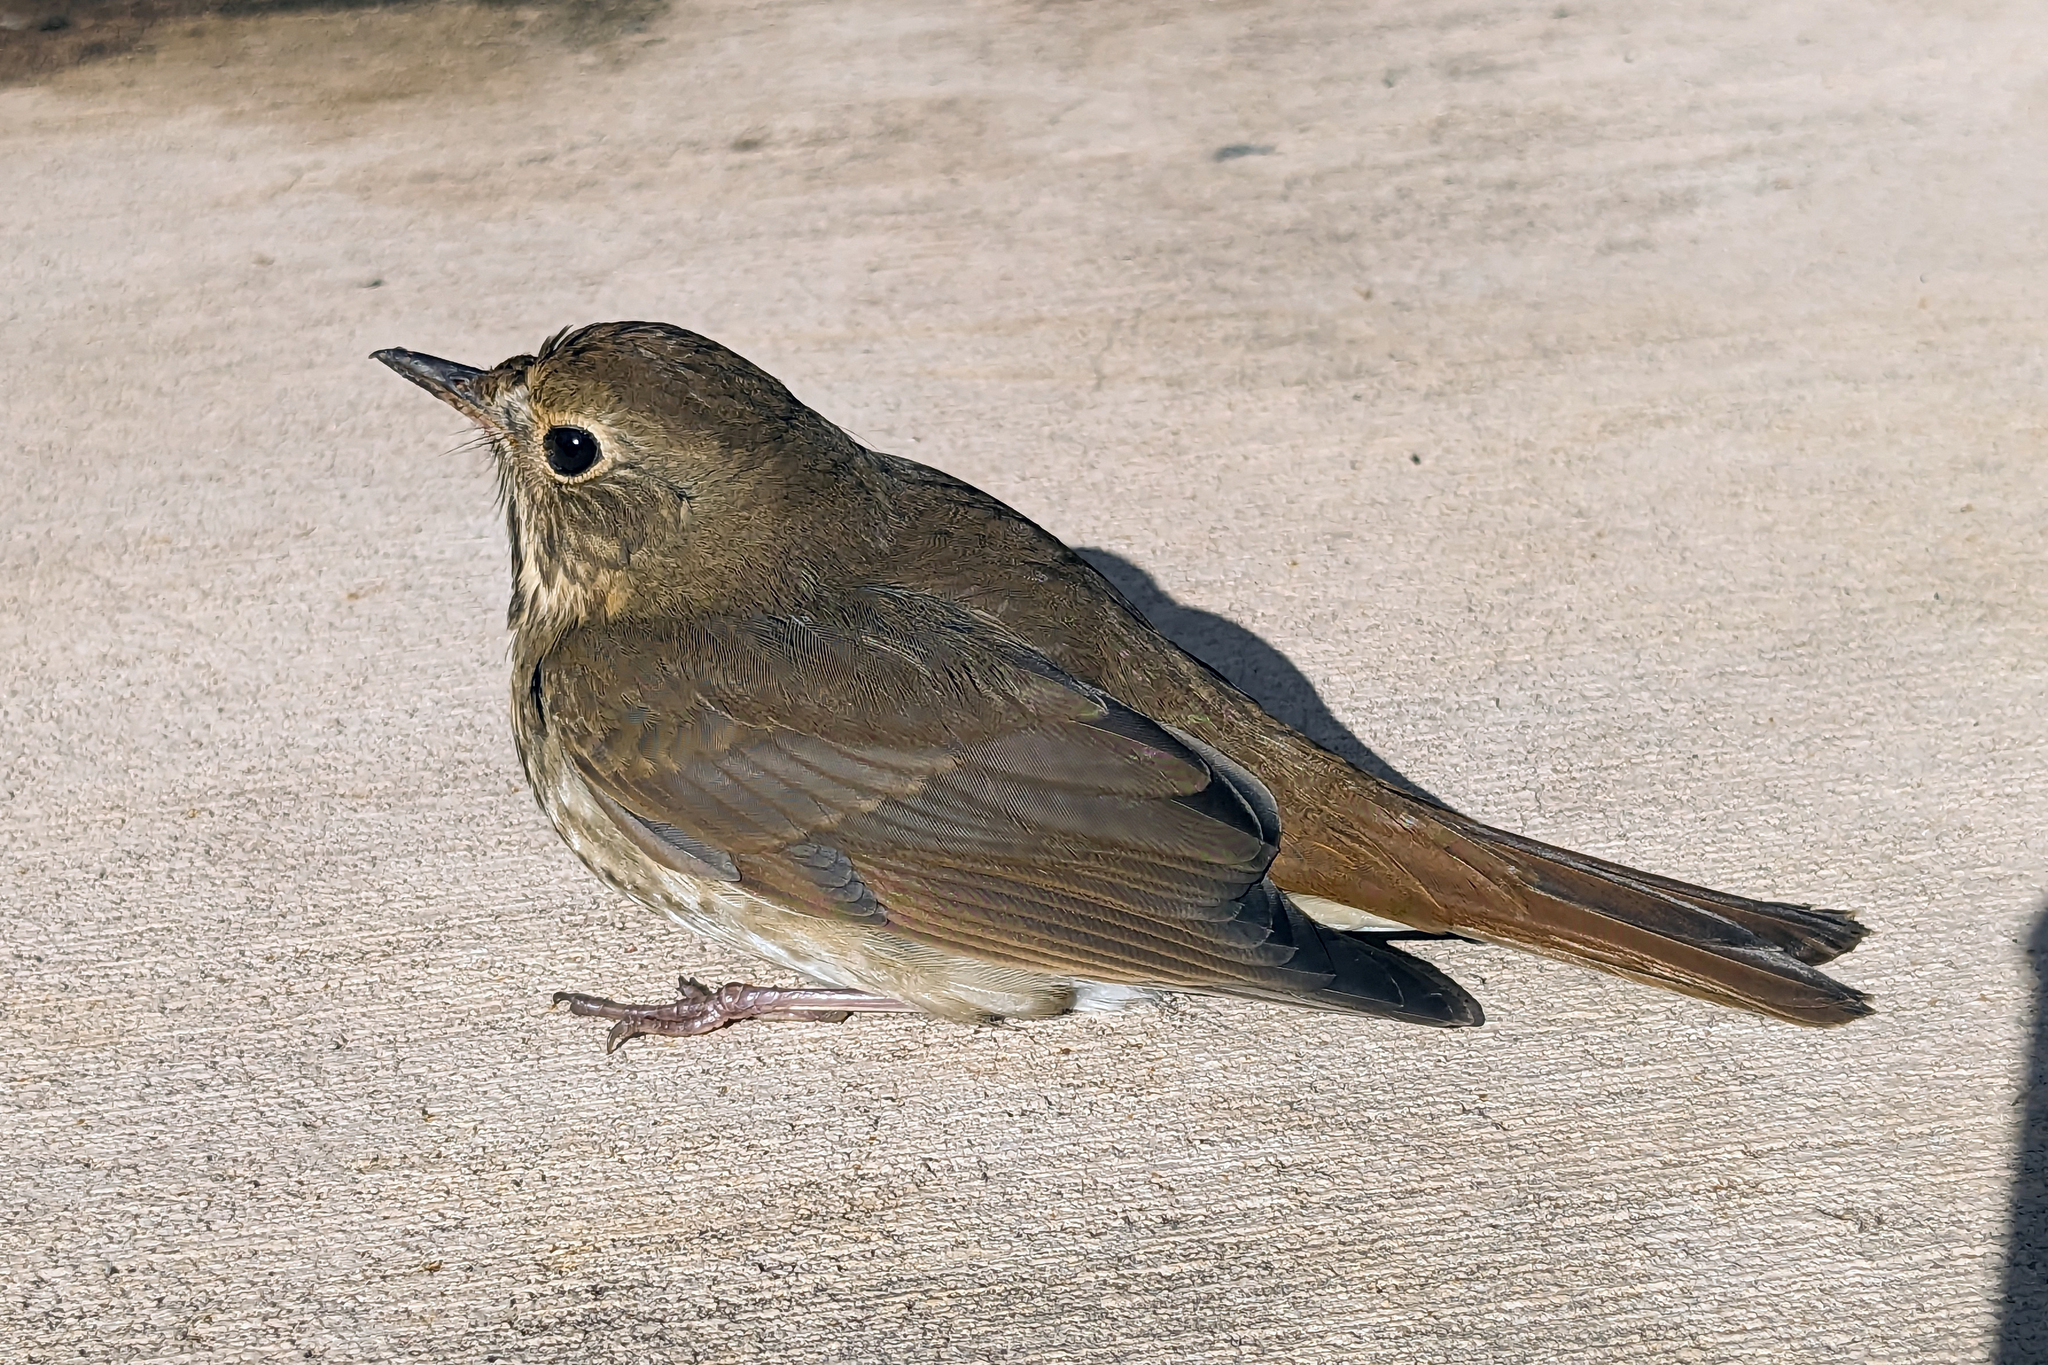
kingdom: Animalia
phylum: Chordata
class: Aves
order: Passeriformes
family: Turdidae
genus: Catharus
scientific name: Catharus guttatus
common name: Hermit thrush
